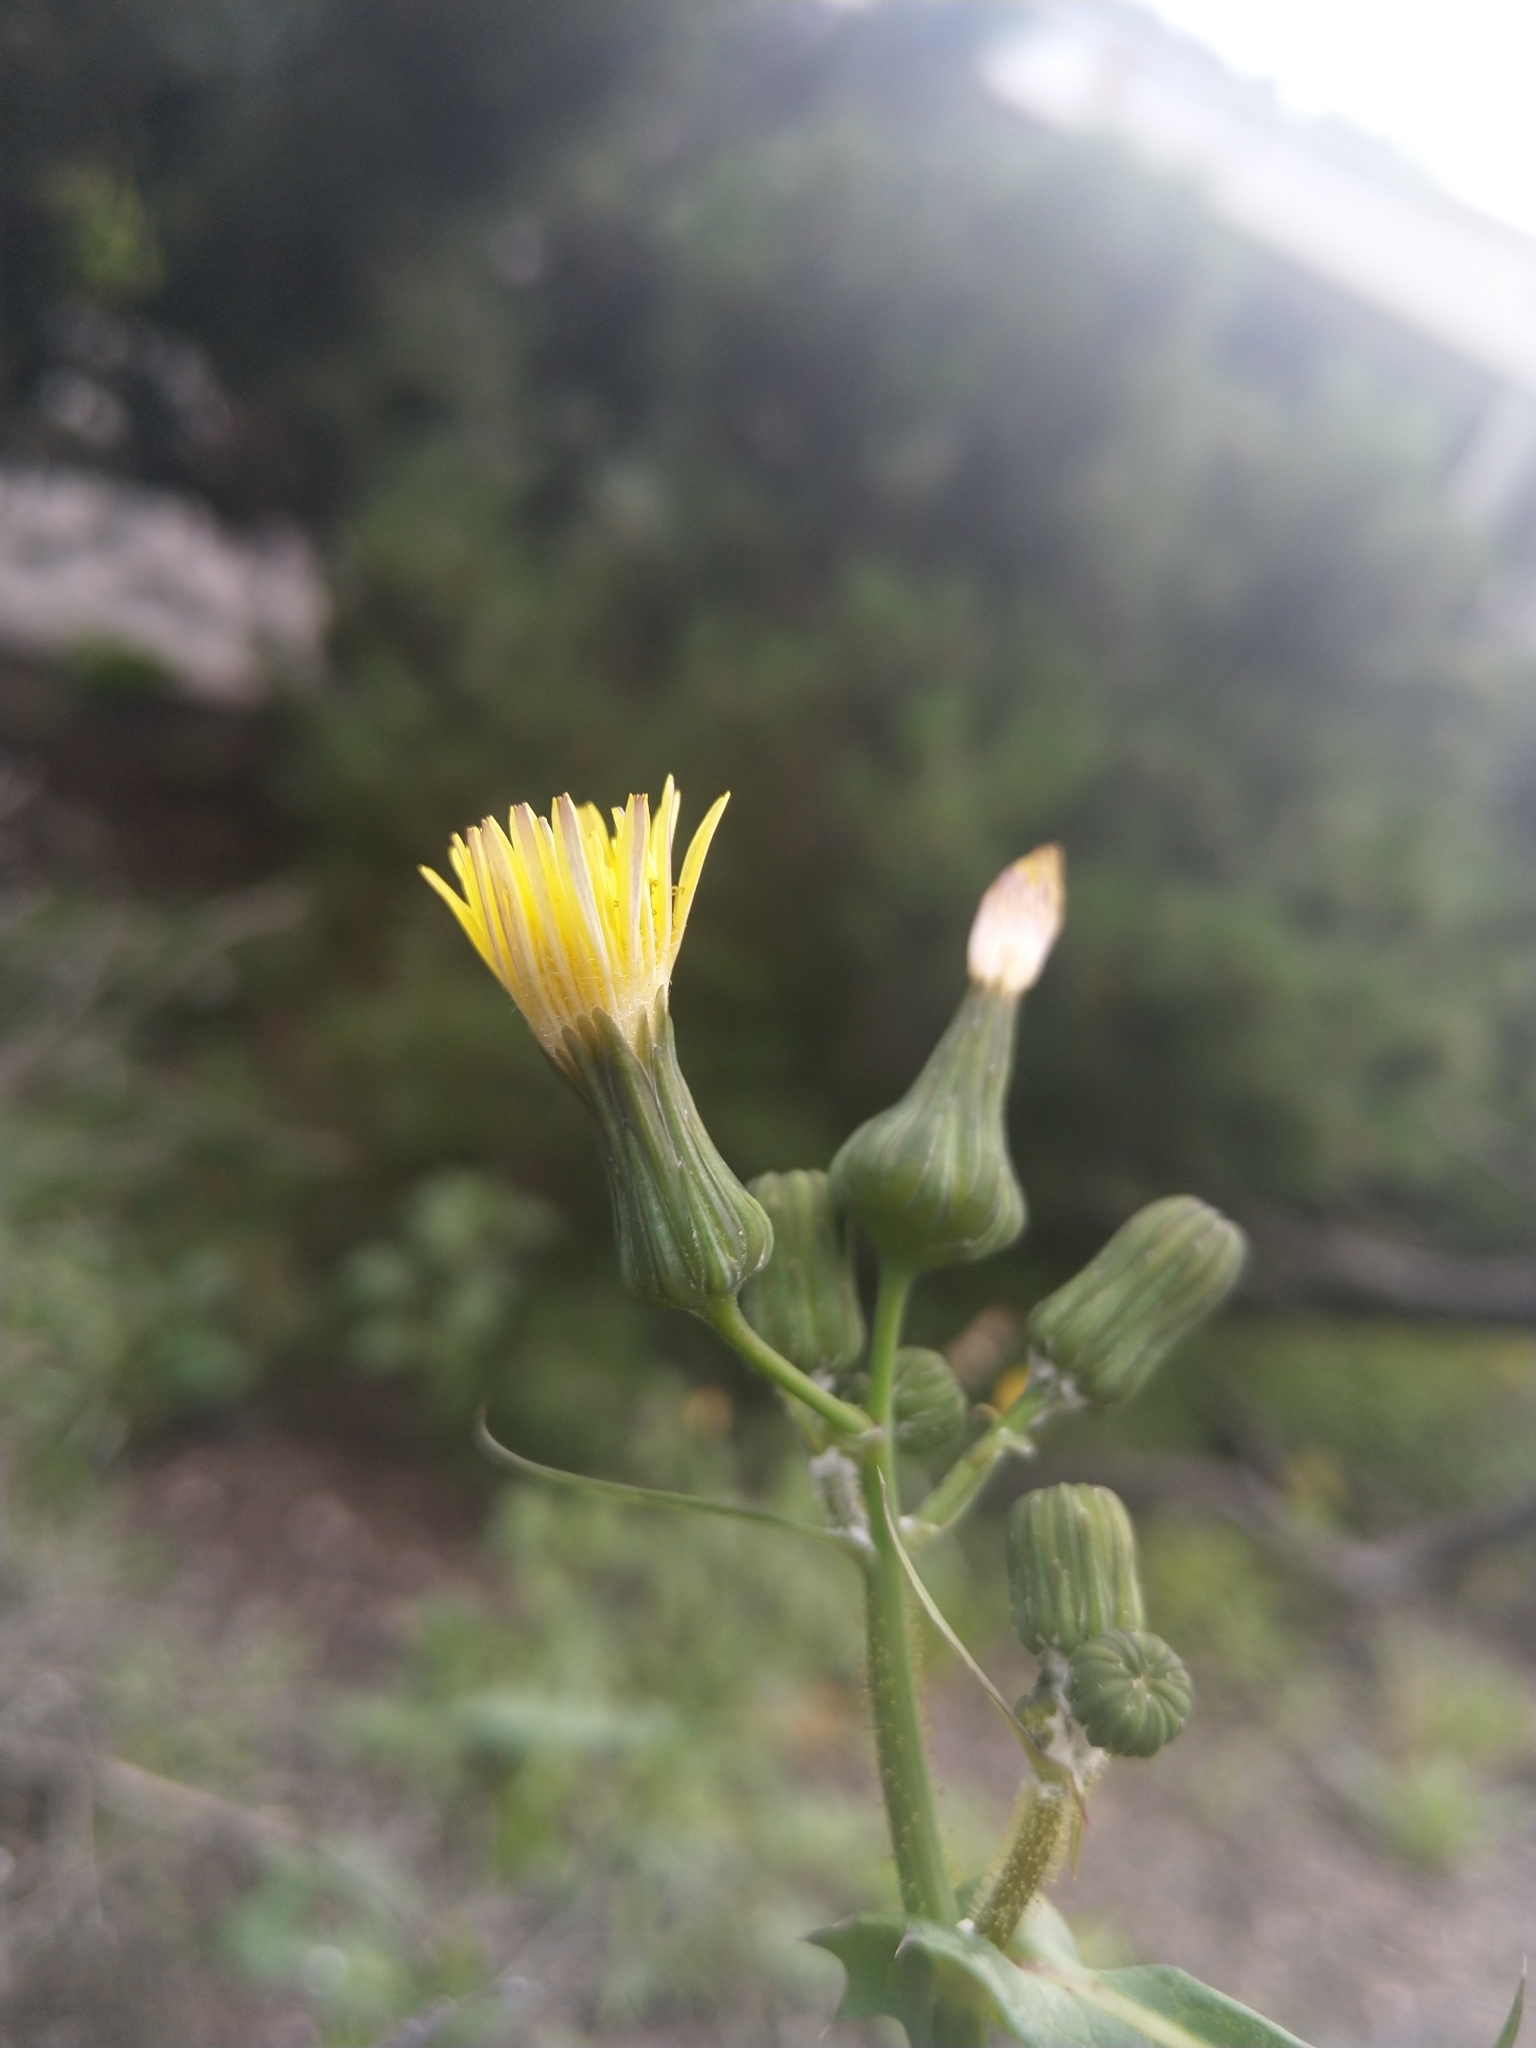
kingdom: Plantae
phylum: Tracheophyta
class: Magnoliopsida
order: Asterales
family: Asteraceae
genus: Sonchus
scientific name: Sonchus arvensis
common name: Perennial sow-thistle
